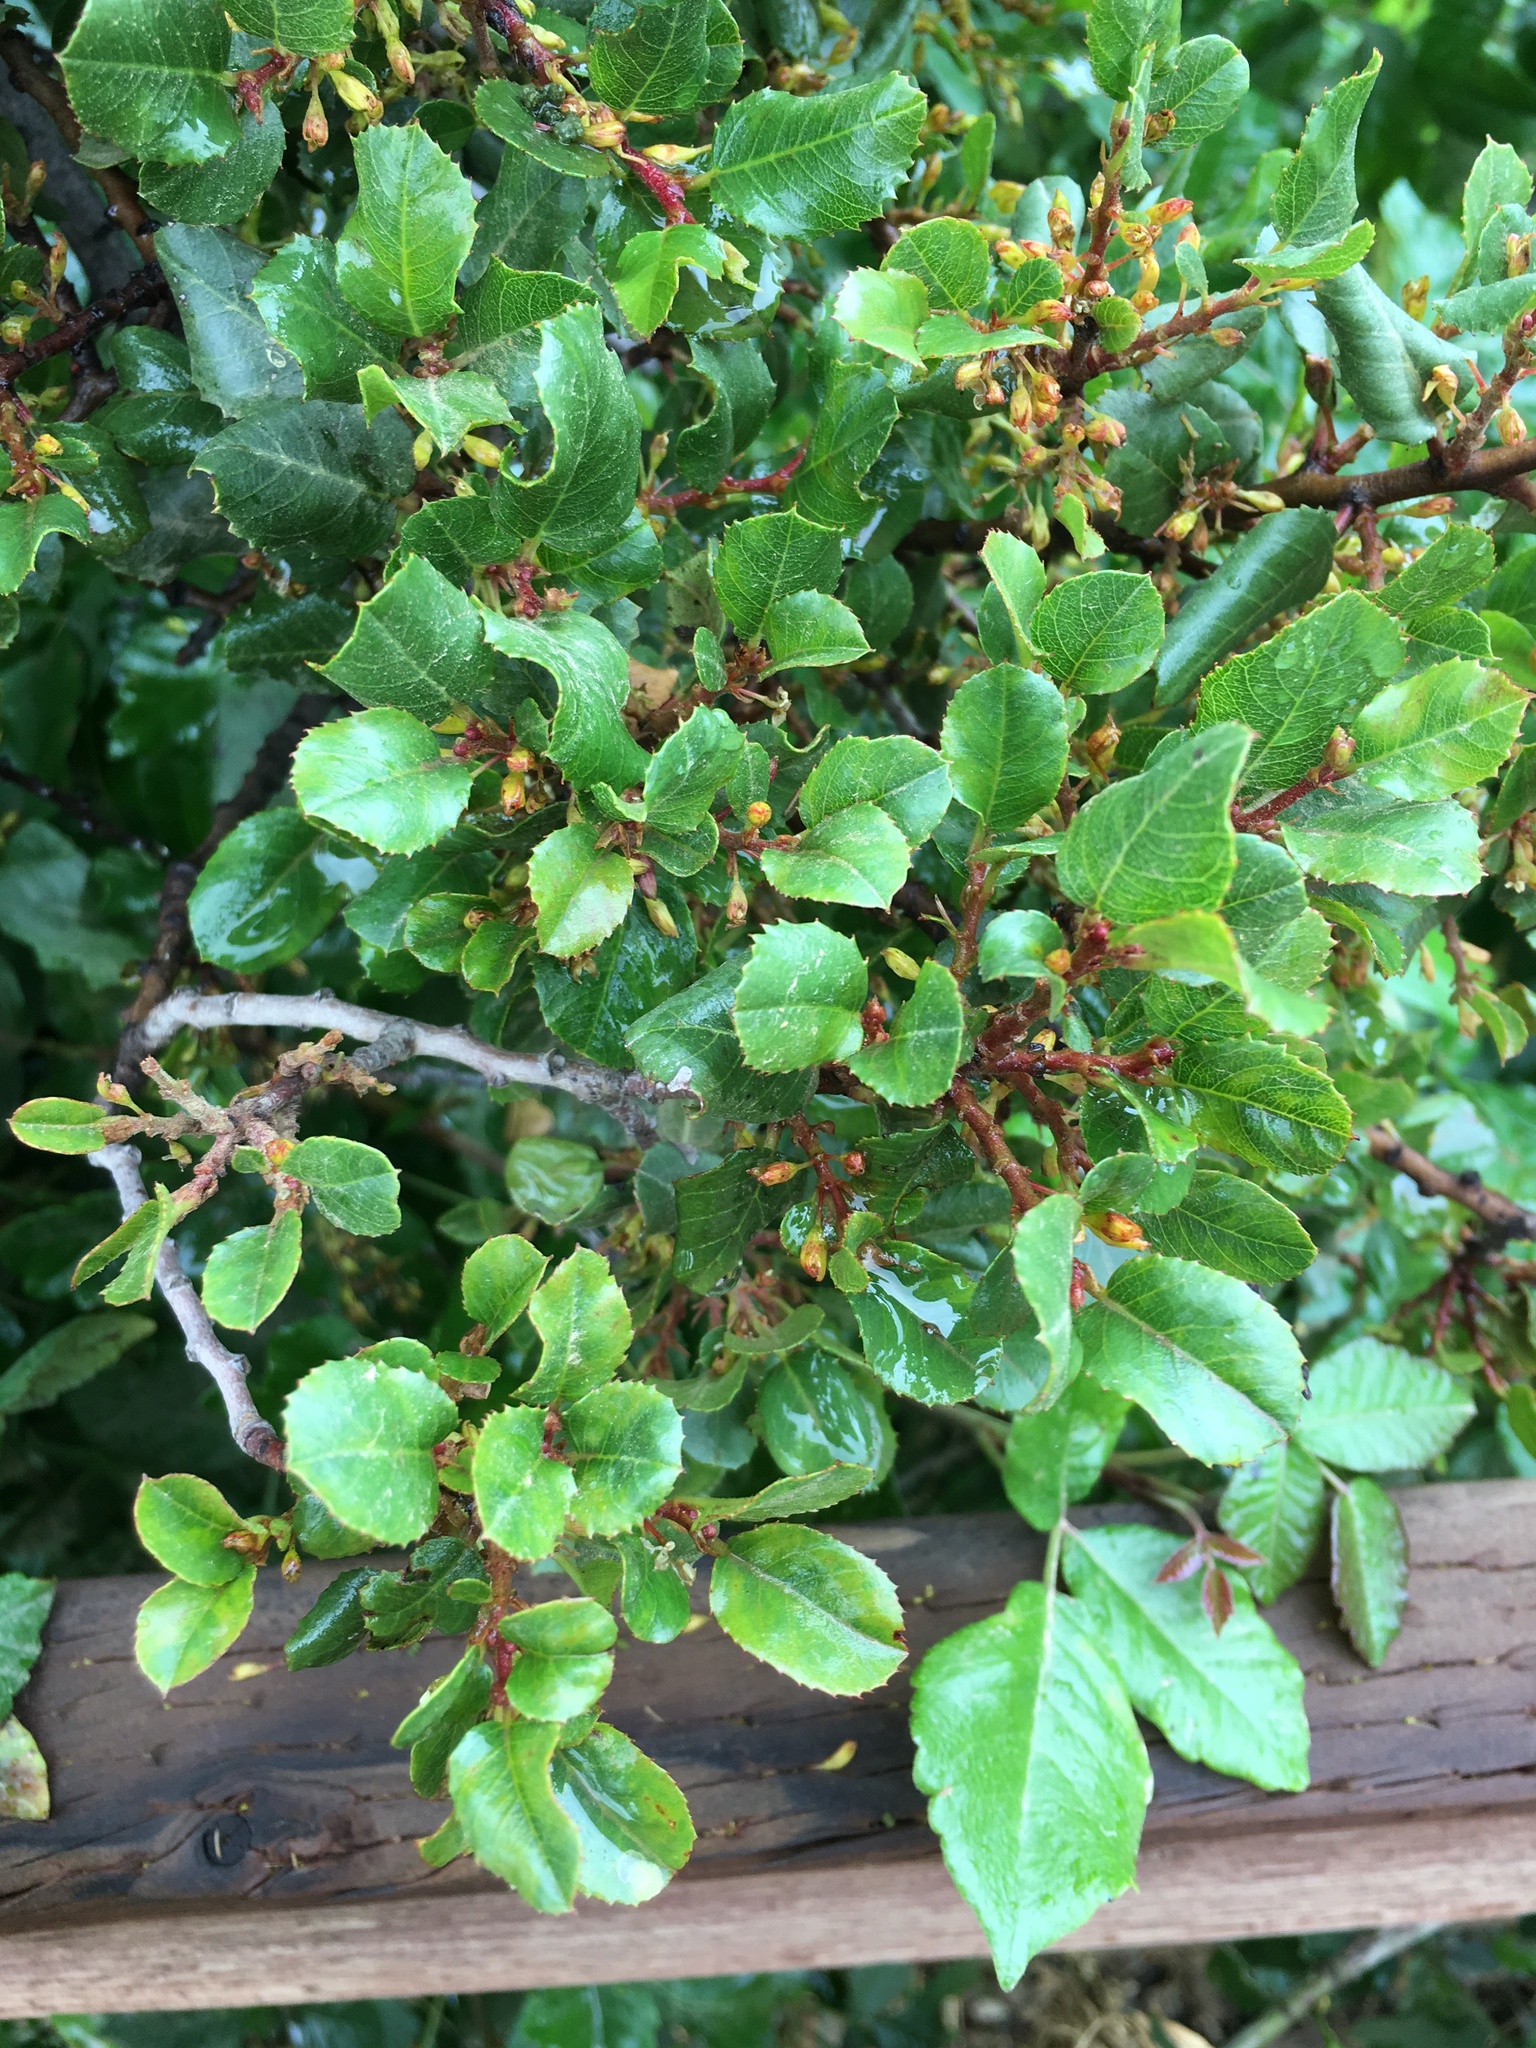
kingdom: Plantae
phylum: Tracheophyta
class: Magnoliopsida
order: Rosales
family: Rhamnaceae
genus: Endotropis
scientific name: Endotropis crocea
